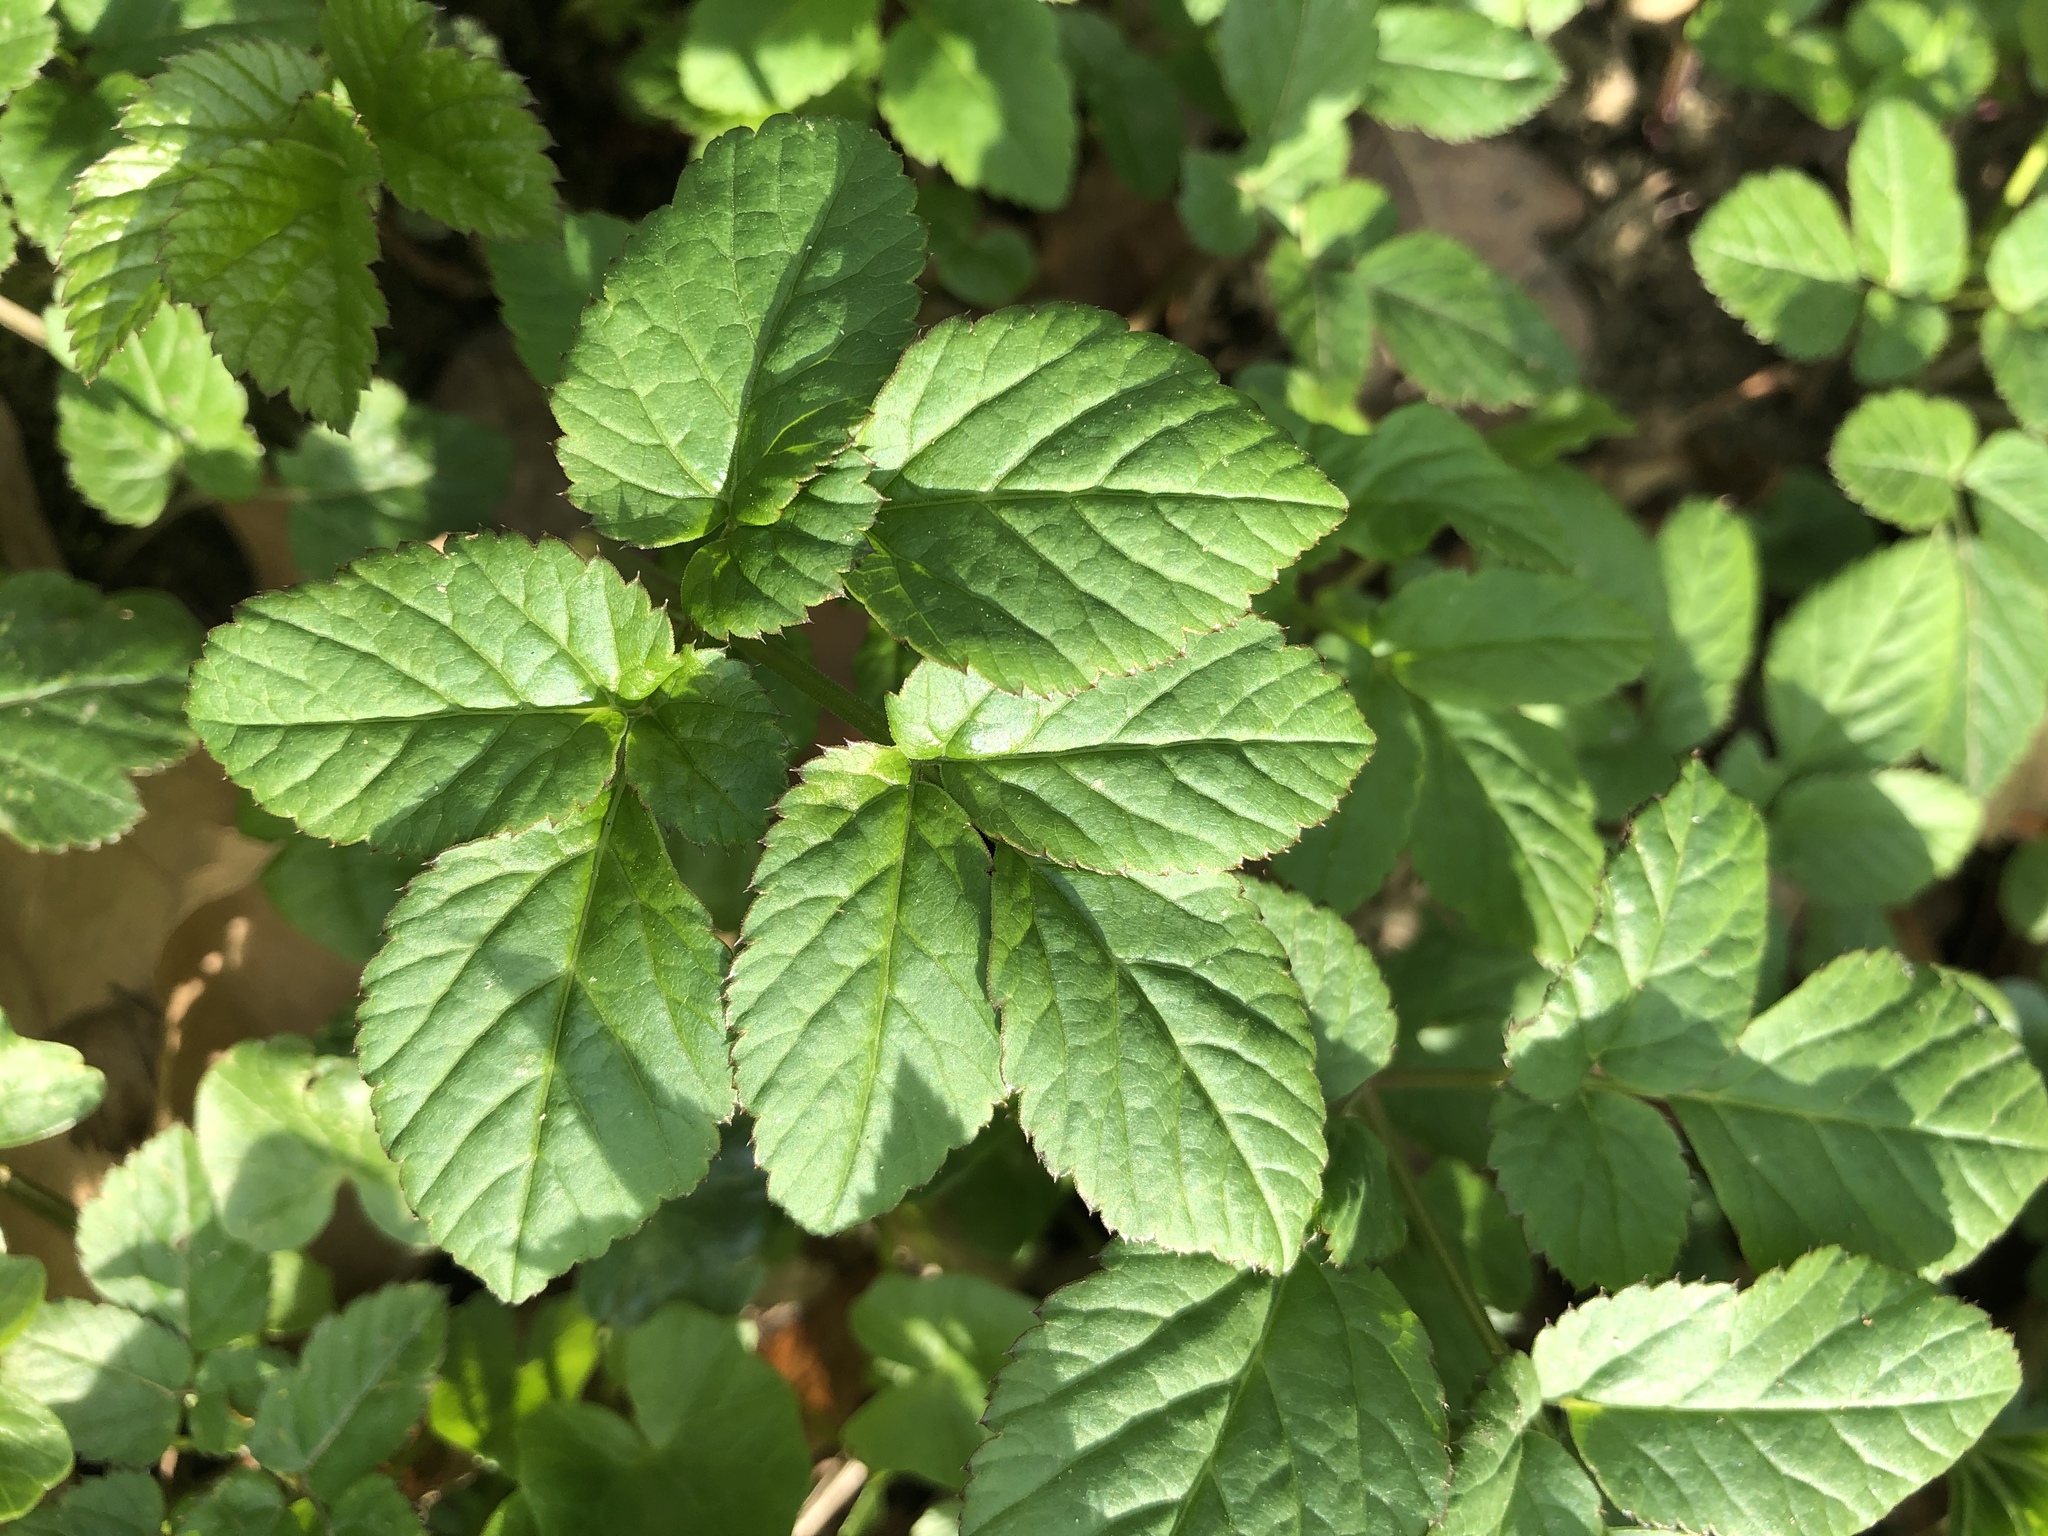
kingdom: Plantae
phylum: Tracheophyta
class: Magnoliopsida
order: Apiales
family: Apiaceae
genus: Aegopodium
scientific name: Aegopodium podagraria
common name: Ground-elder
